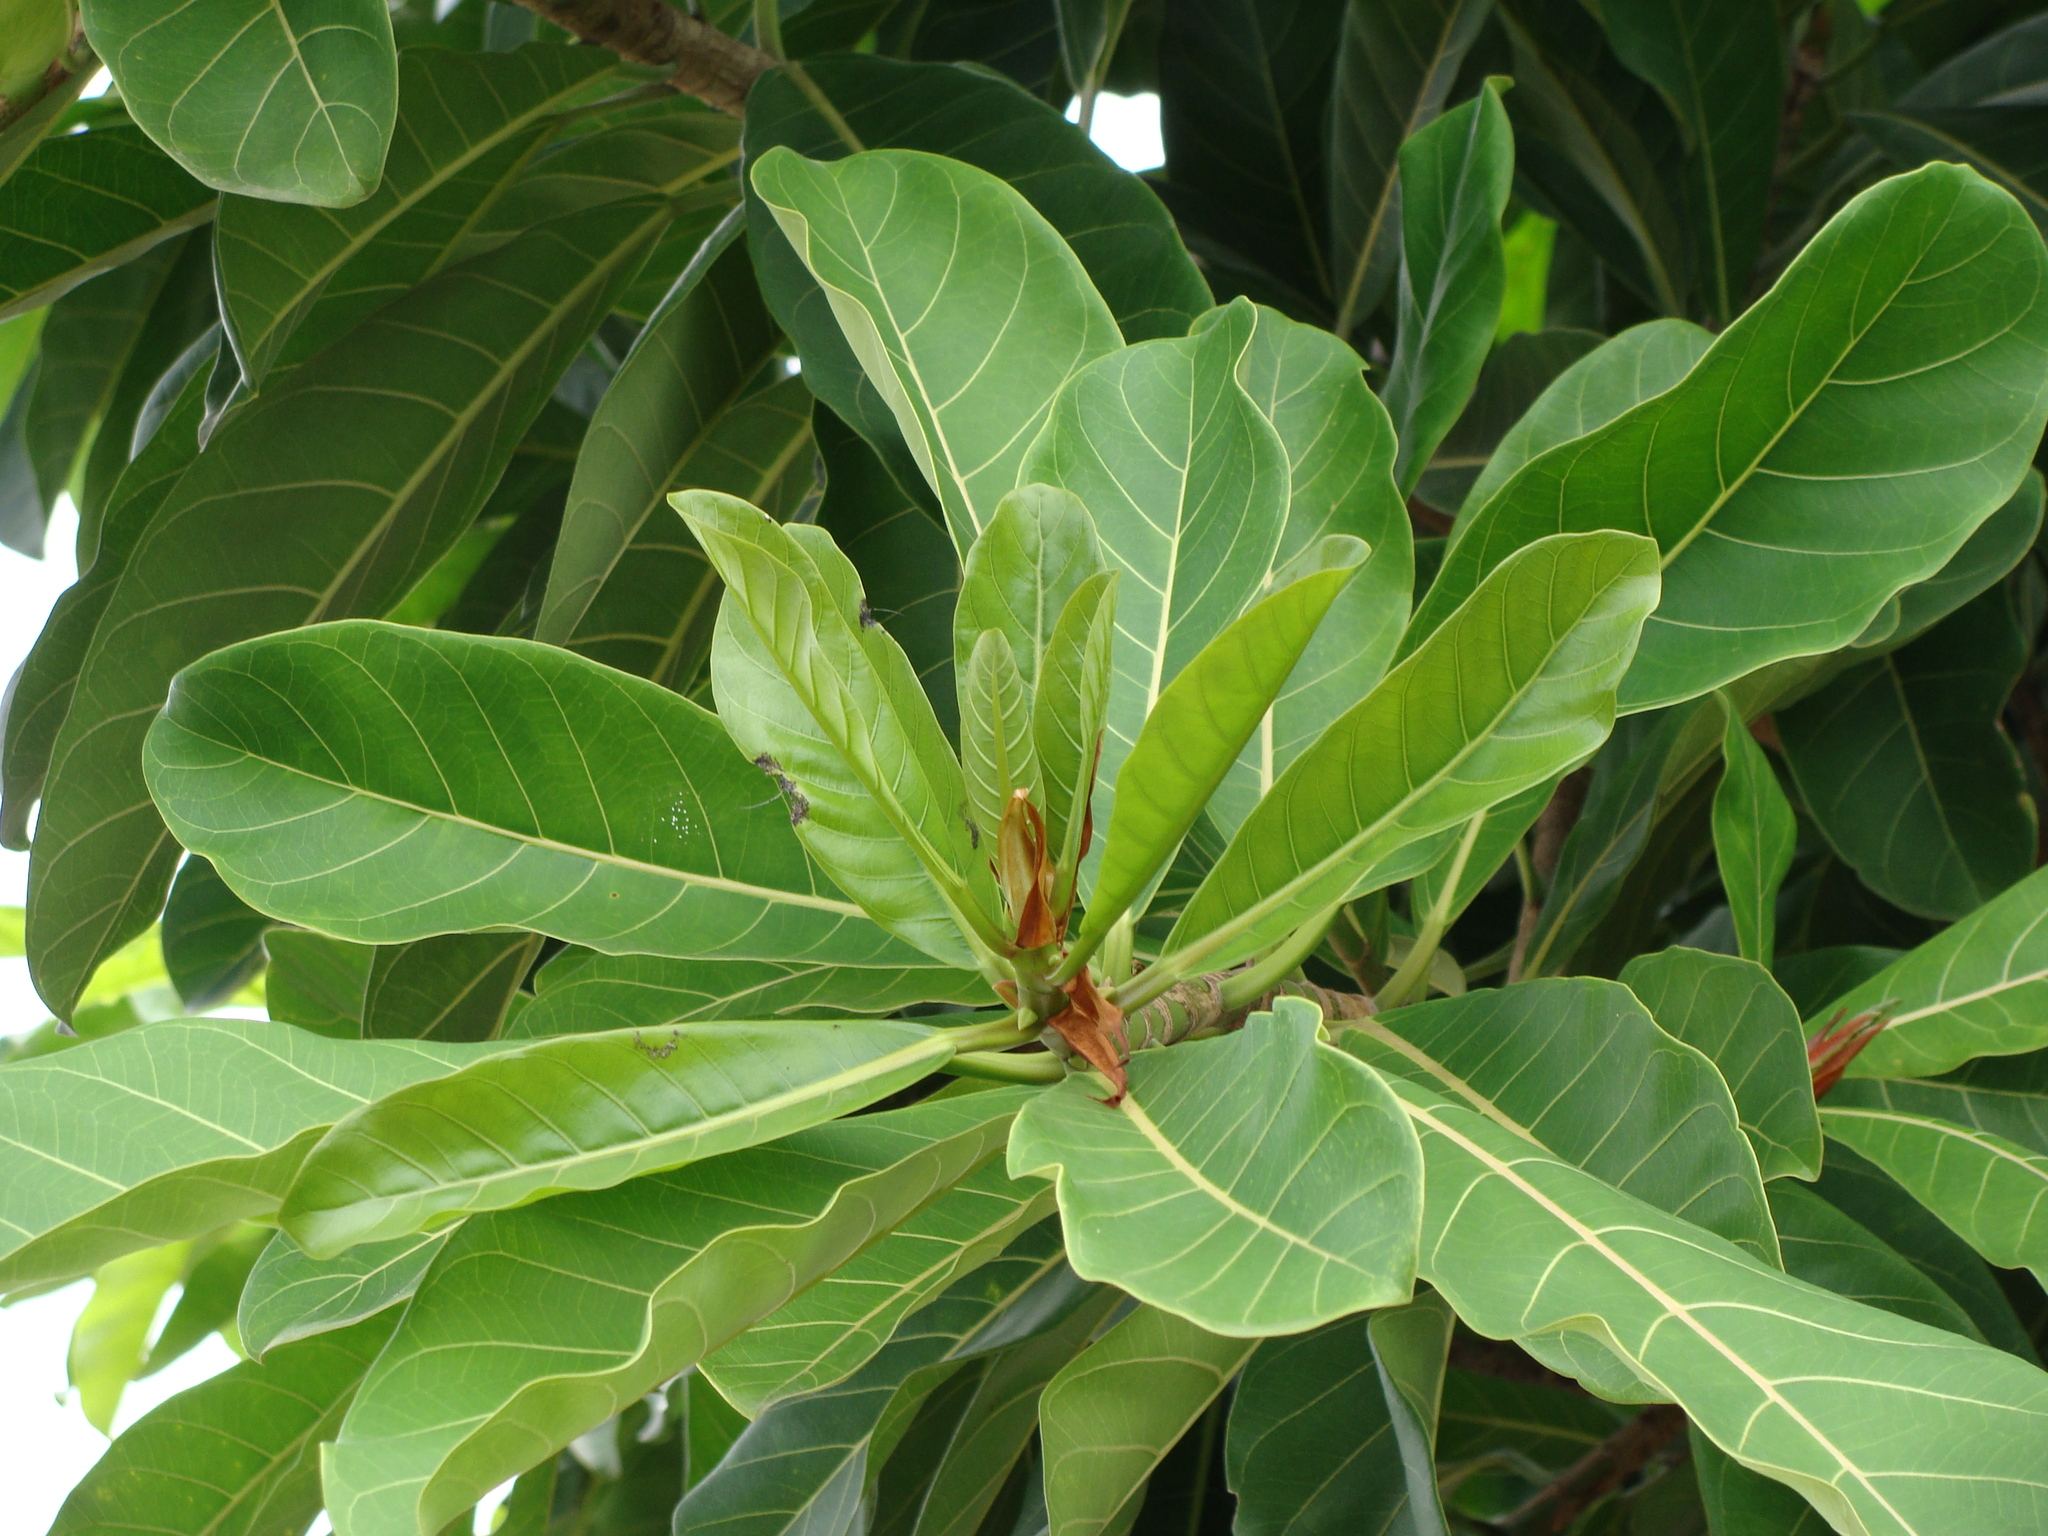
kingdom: Plantae
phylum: Tracheophyta
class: Magnoliopsida
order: Rosales
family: Moraceae
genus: Ficus
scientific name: Ficus obtusifolia
